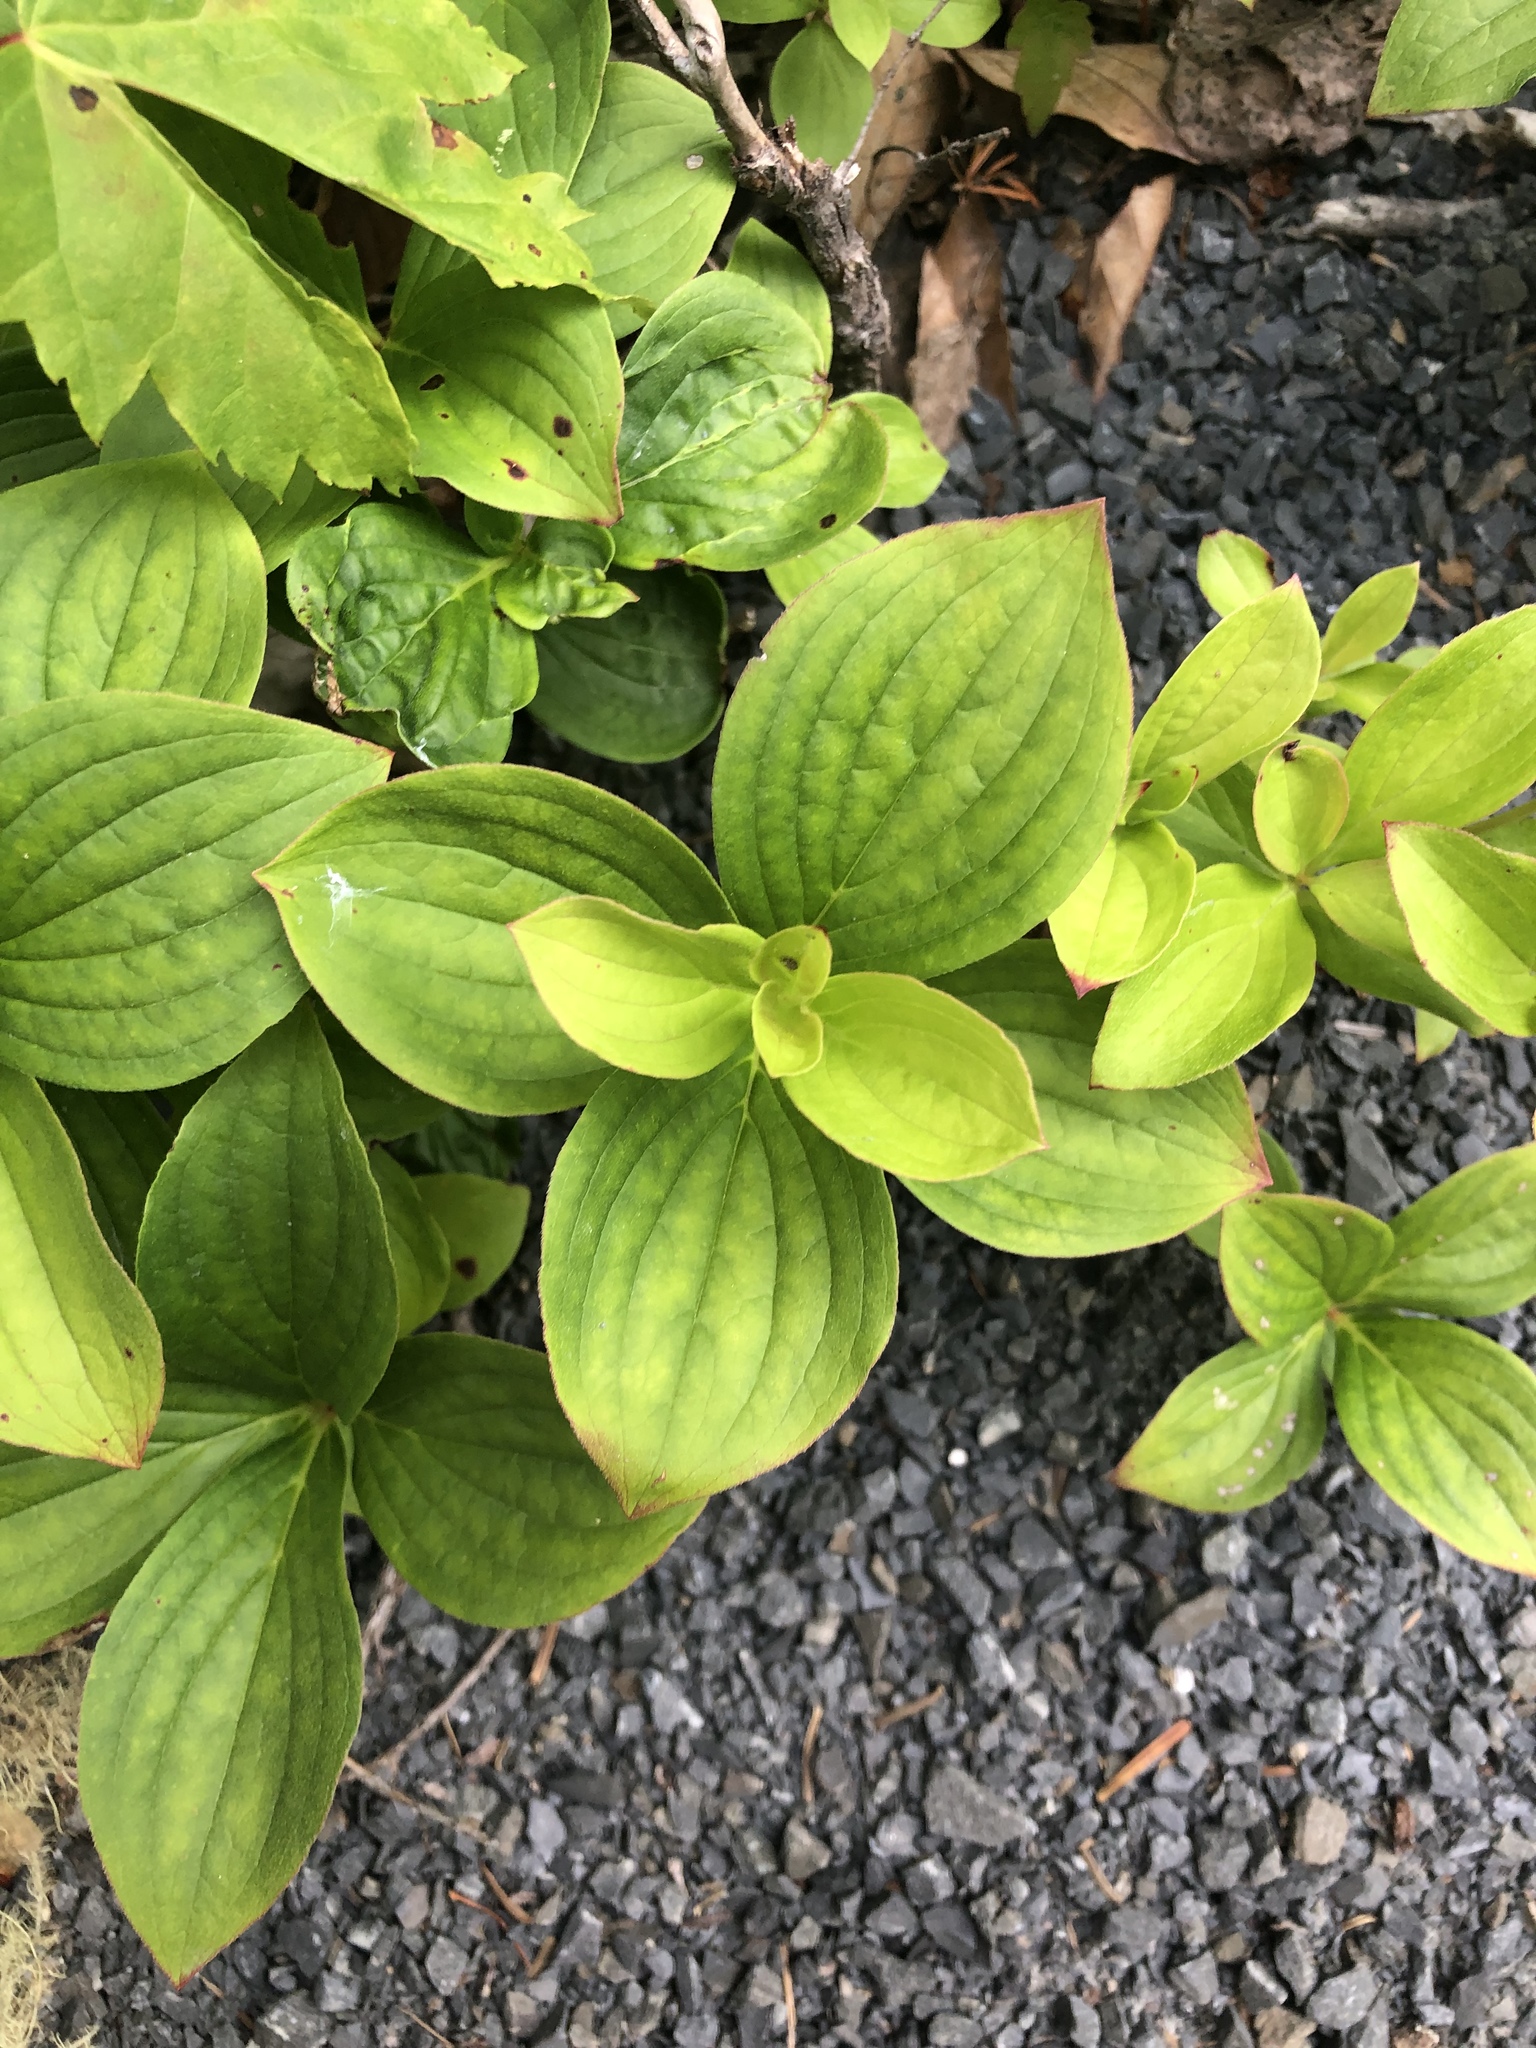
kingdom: Plantae
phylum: Tracheophyta
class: Magnoliopsida
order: Cornales
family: Cornaceae
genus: Cornus
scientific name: Cornus canadensis
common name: Creeping dogwood
